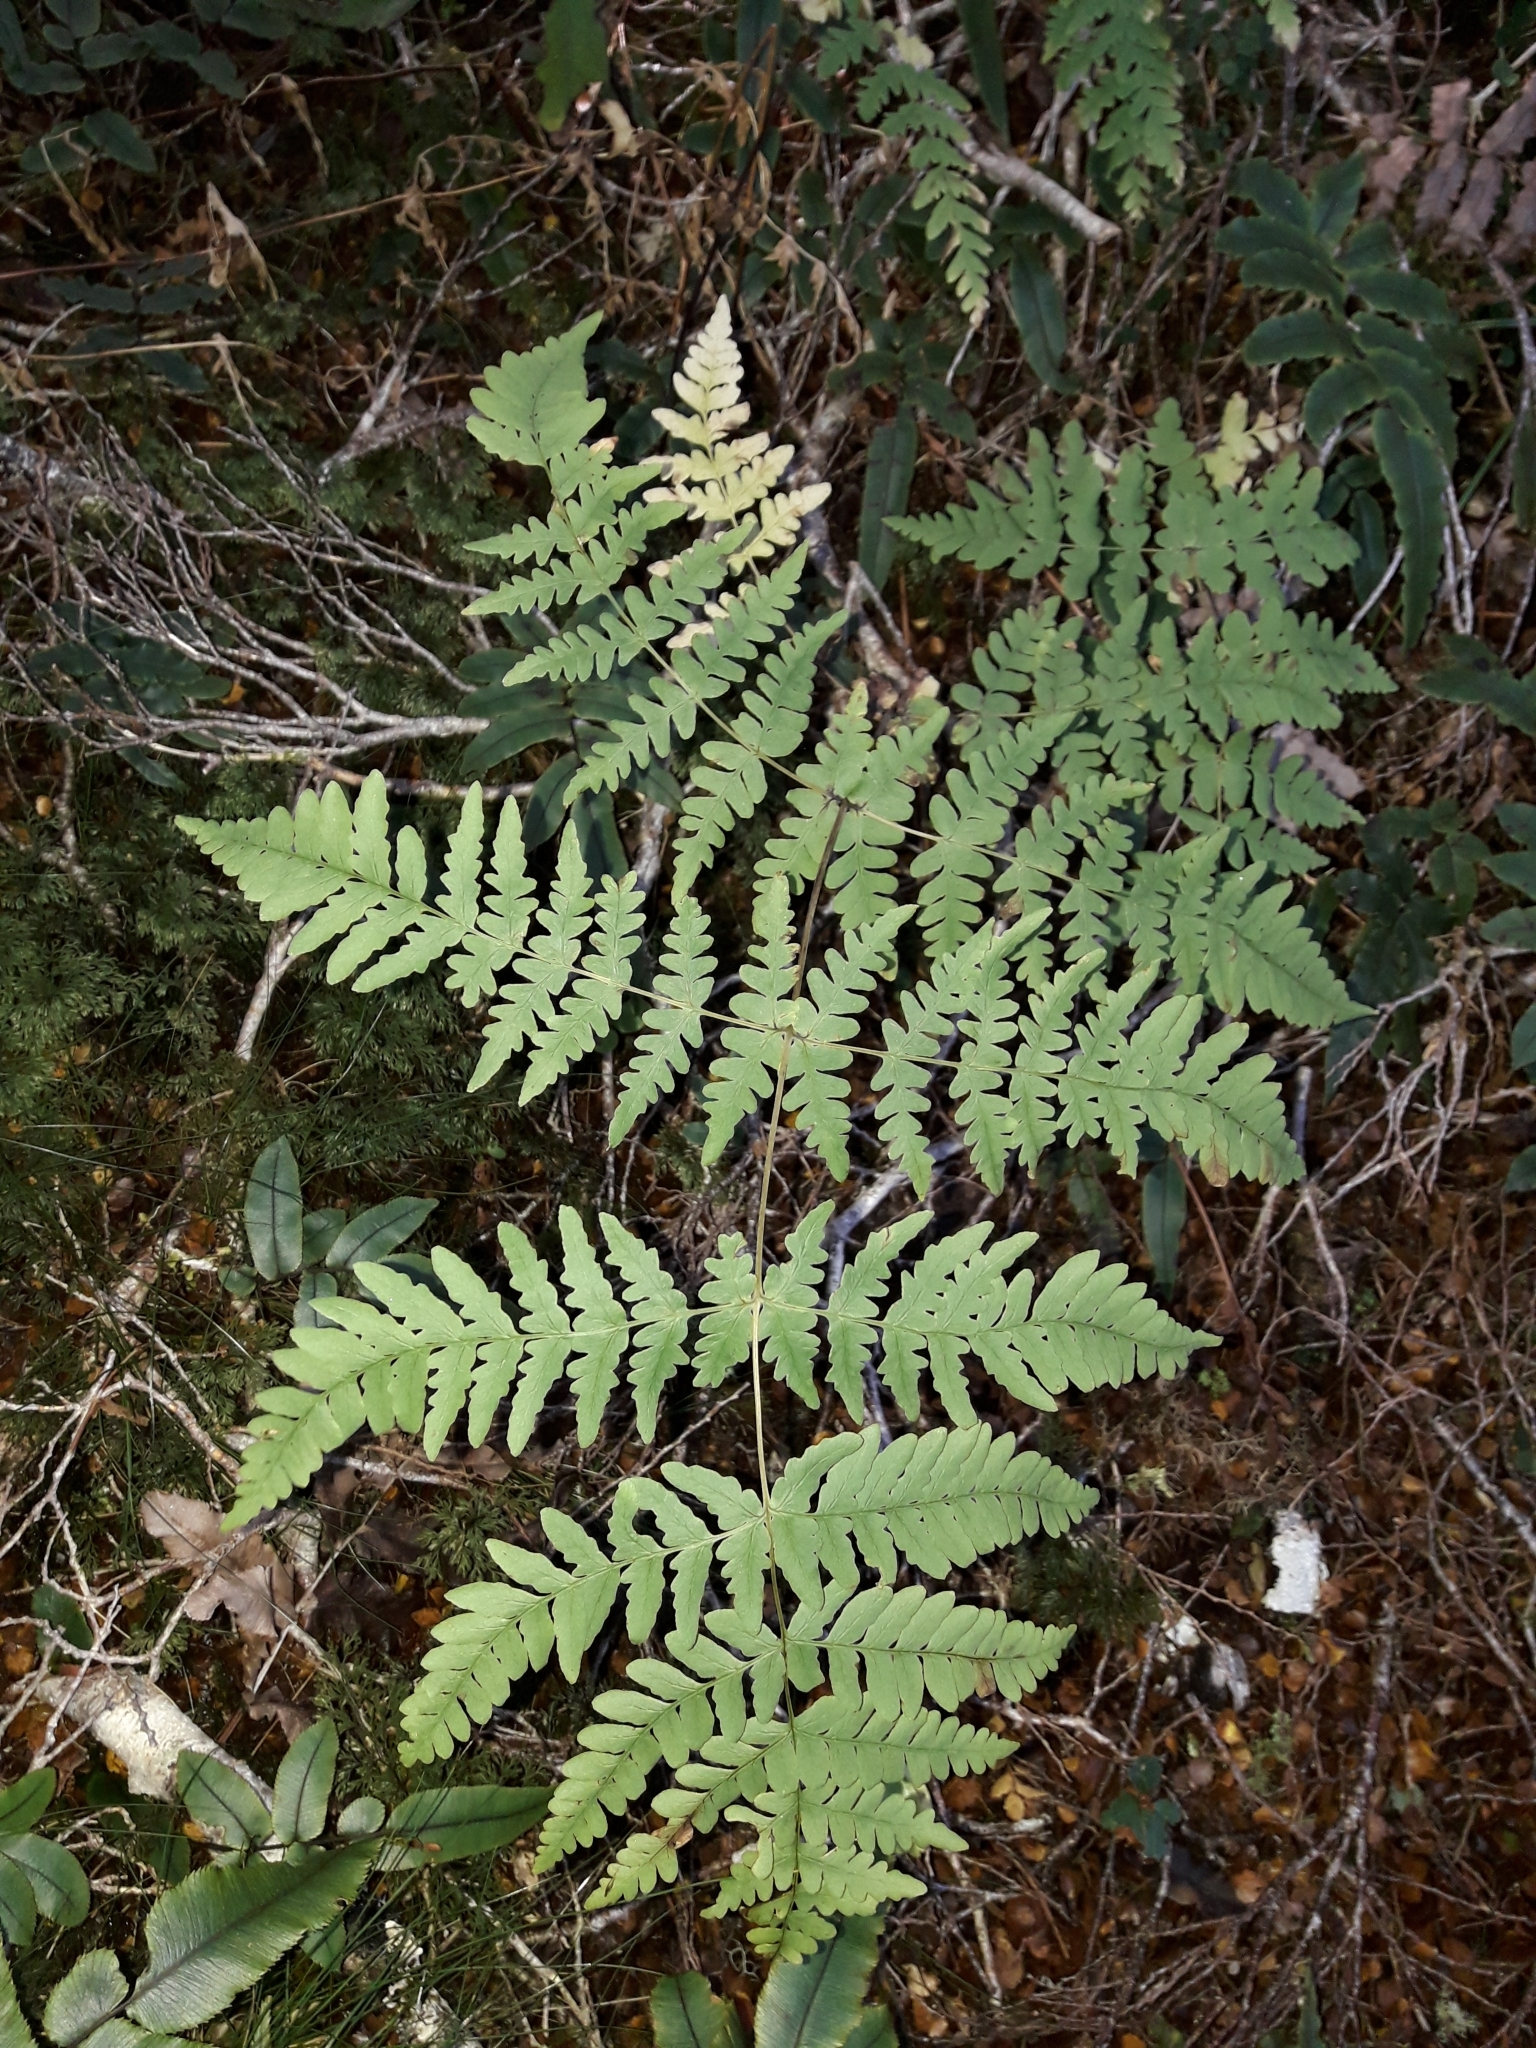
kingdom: Plantae
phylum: Tracheophyta
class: Polypodiopsida
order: Polypodiales
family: Dennstaedtiaceae
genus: Histiopteris
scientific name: Histiopteris incisa
